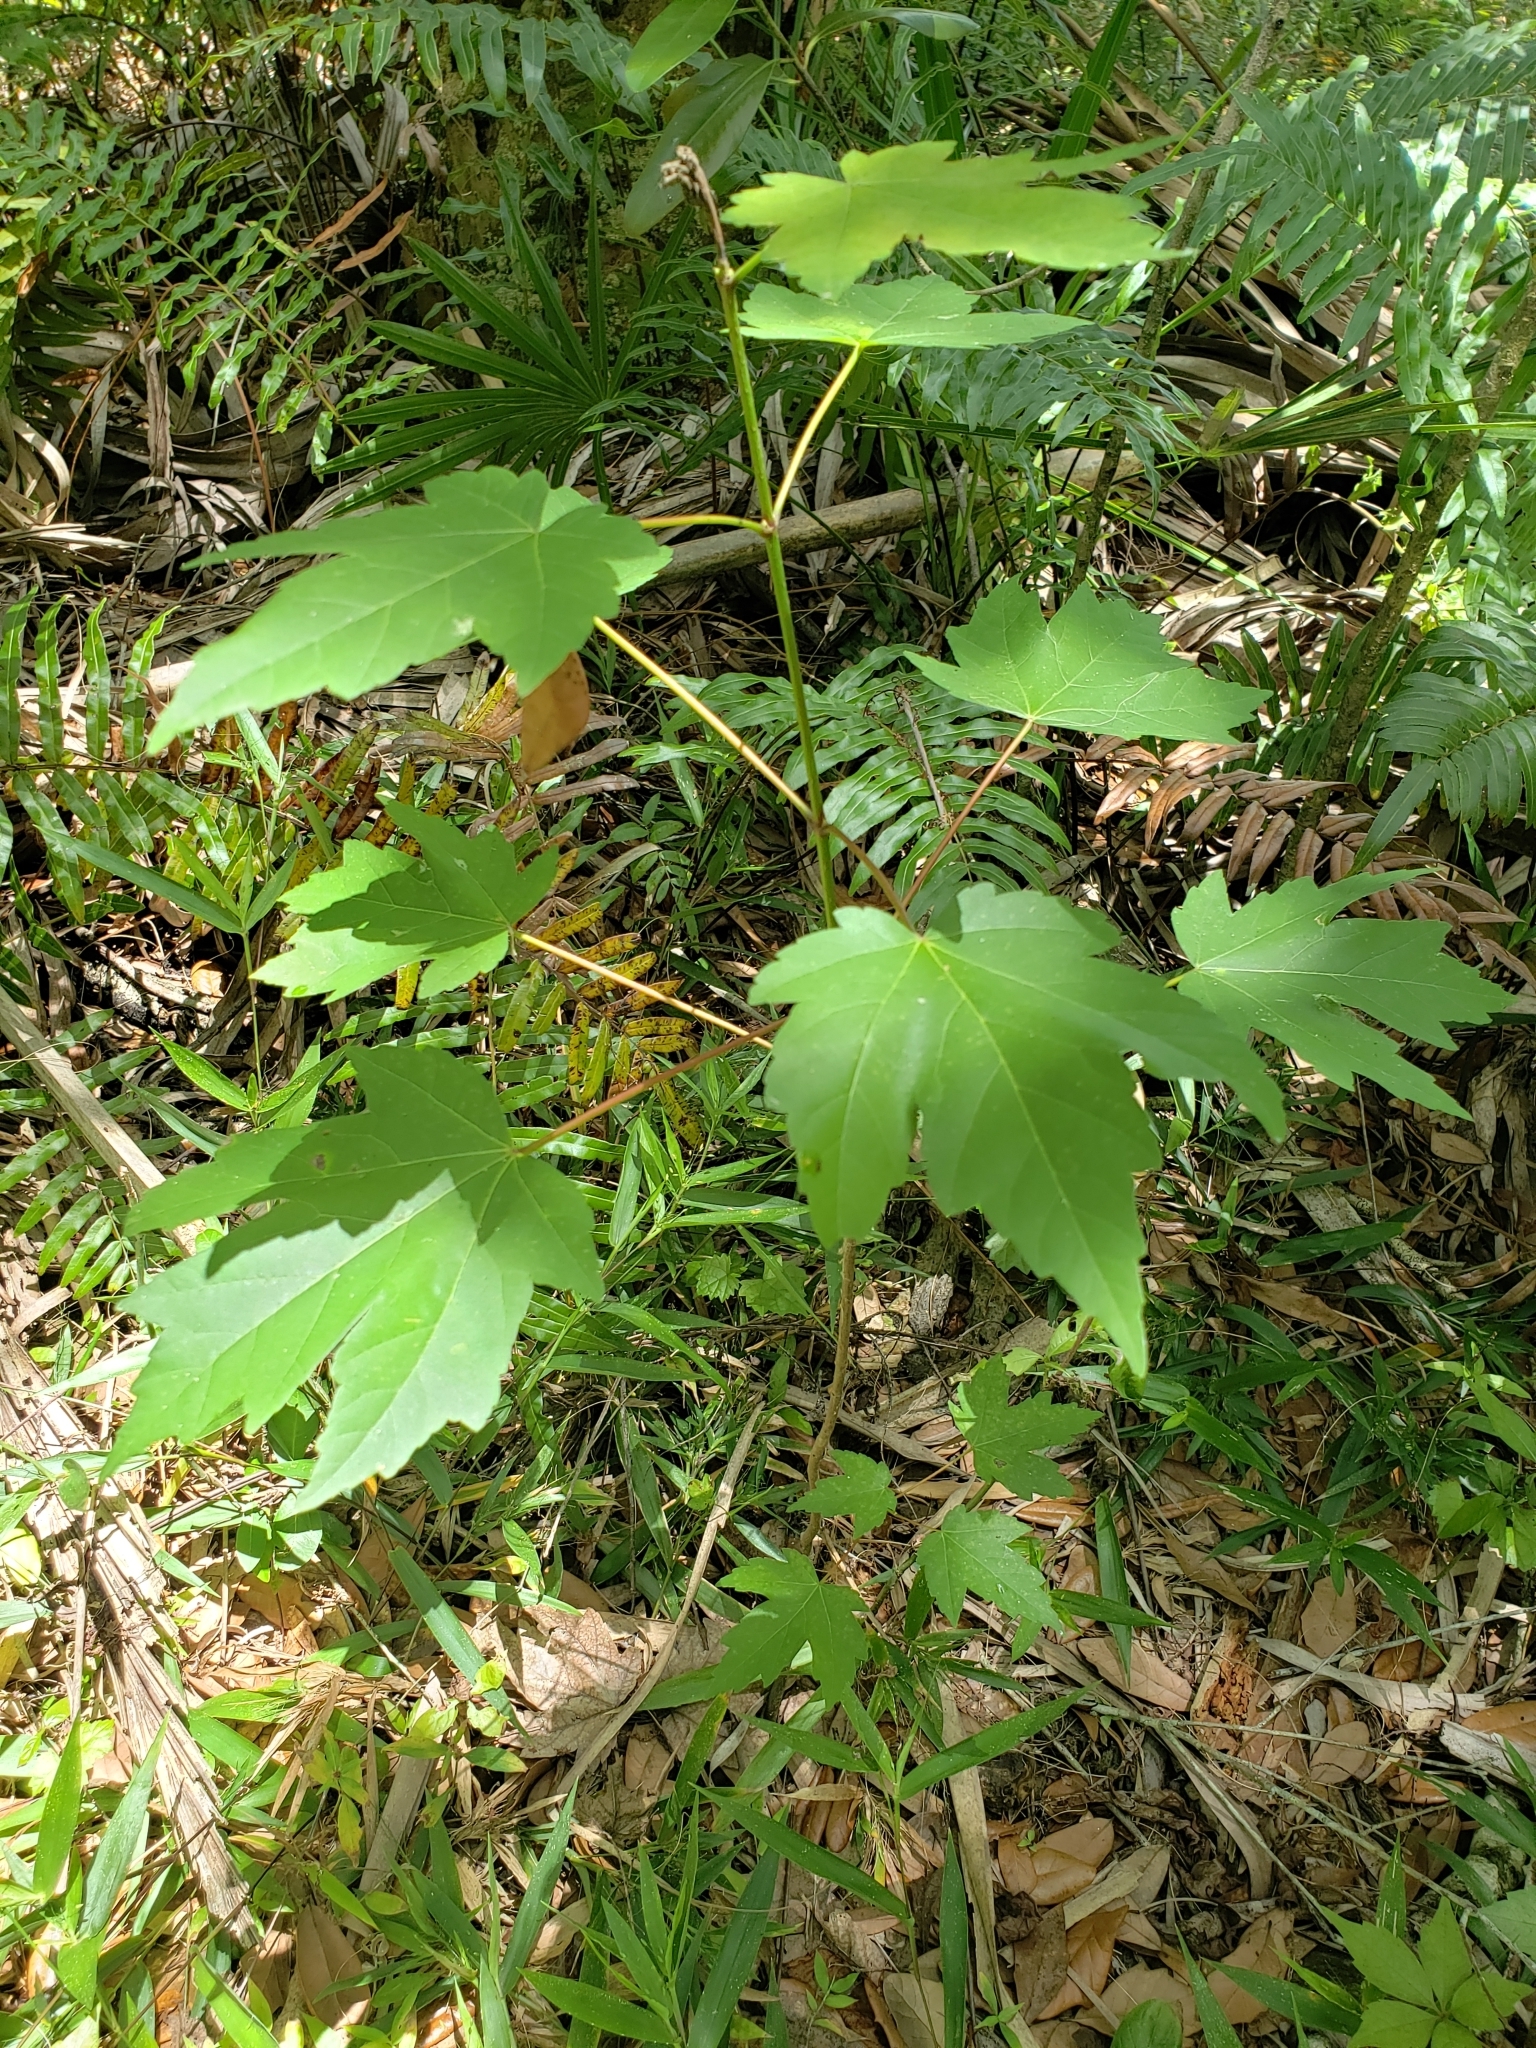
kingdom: Plantae
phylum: Tracheophyta
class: Magnoliopsida
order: Sapindales
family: Sapindaceae
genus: Acer
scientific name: Acer rubrum
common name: Red maple
